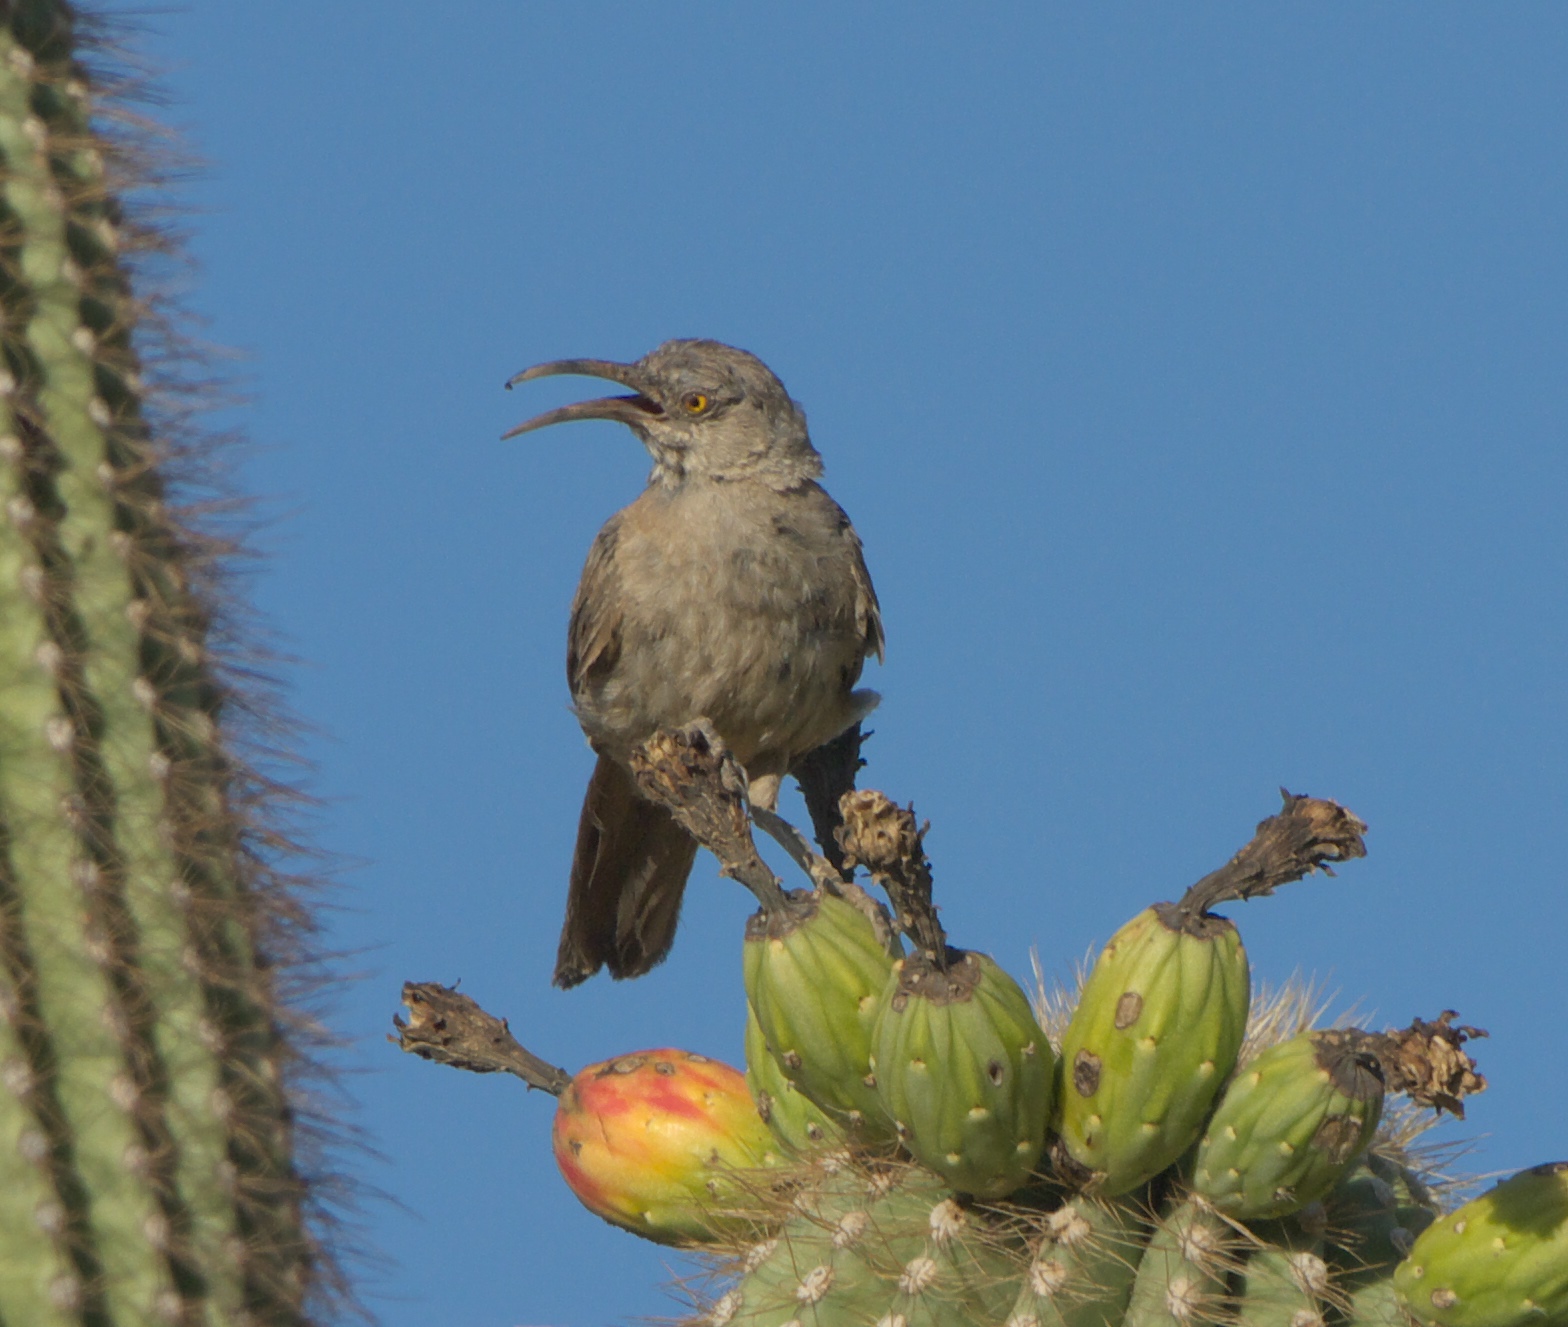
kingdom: Animalia
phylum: Chordata
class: Aves
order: Passeriformes
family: Mimidae
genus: Toxostoma
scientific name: Toxostoma curvirostre
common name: Curve-billed thrasher
